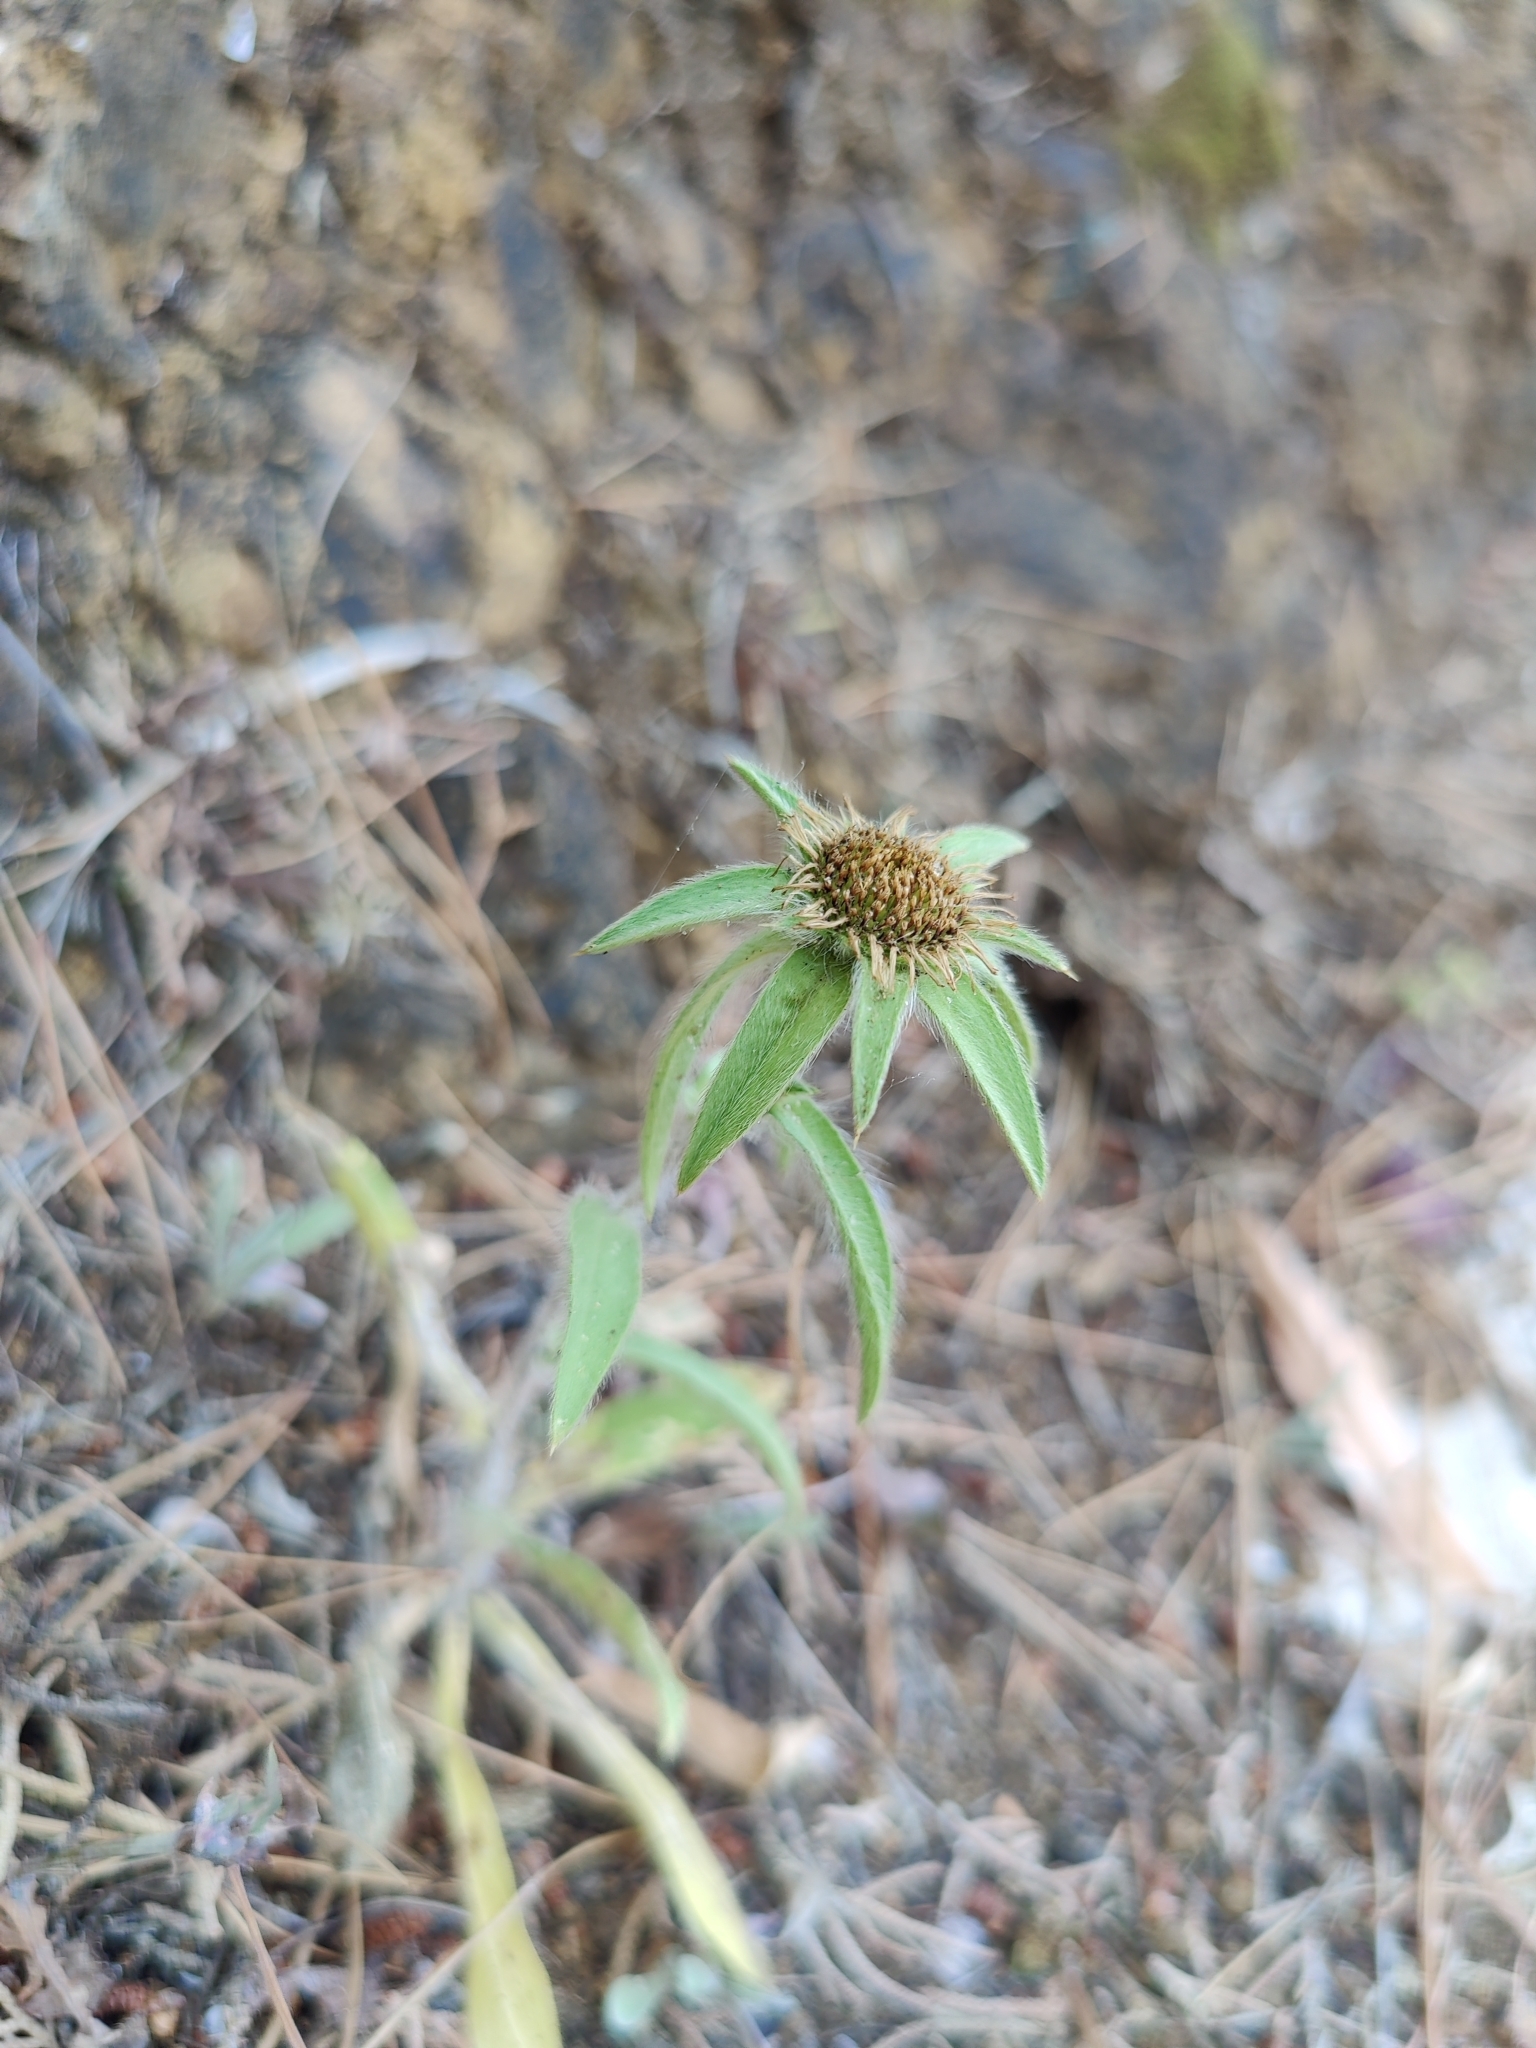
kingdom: Plantae
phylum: Tracheophyta
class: Magnoliopsida
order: Asterales
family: Asteraceae
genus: Pallenis
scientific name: Pallenis spinosa
